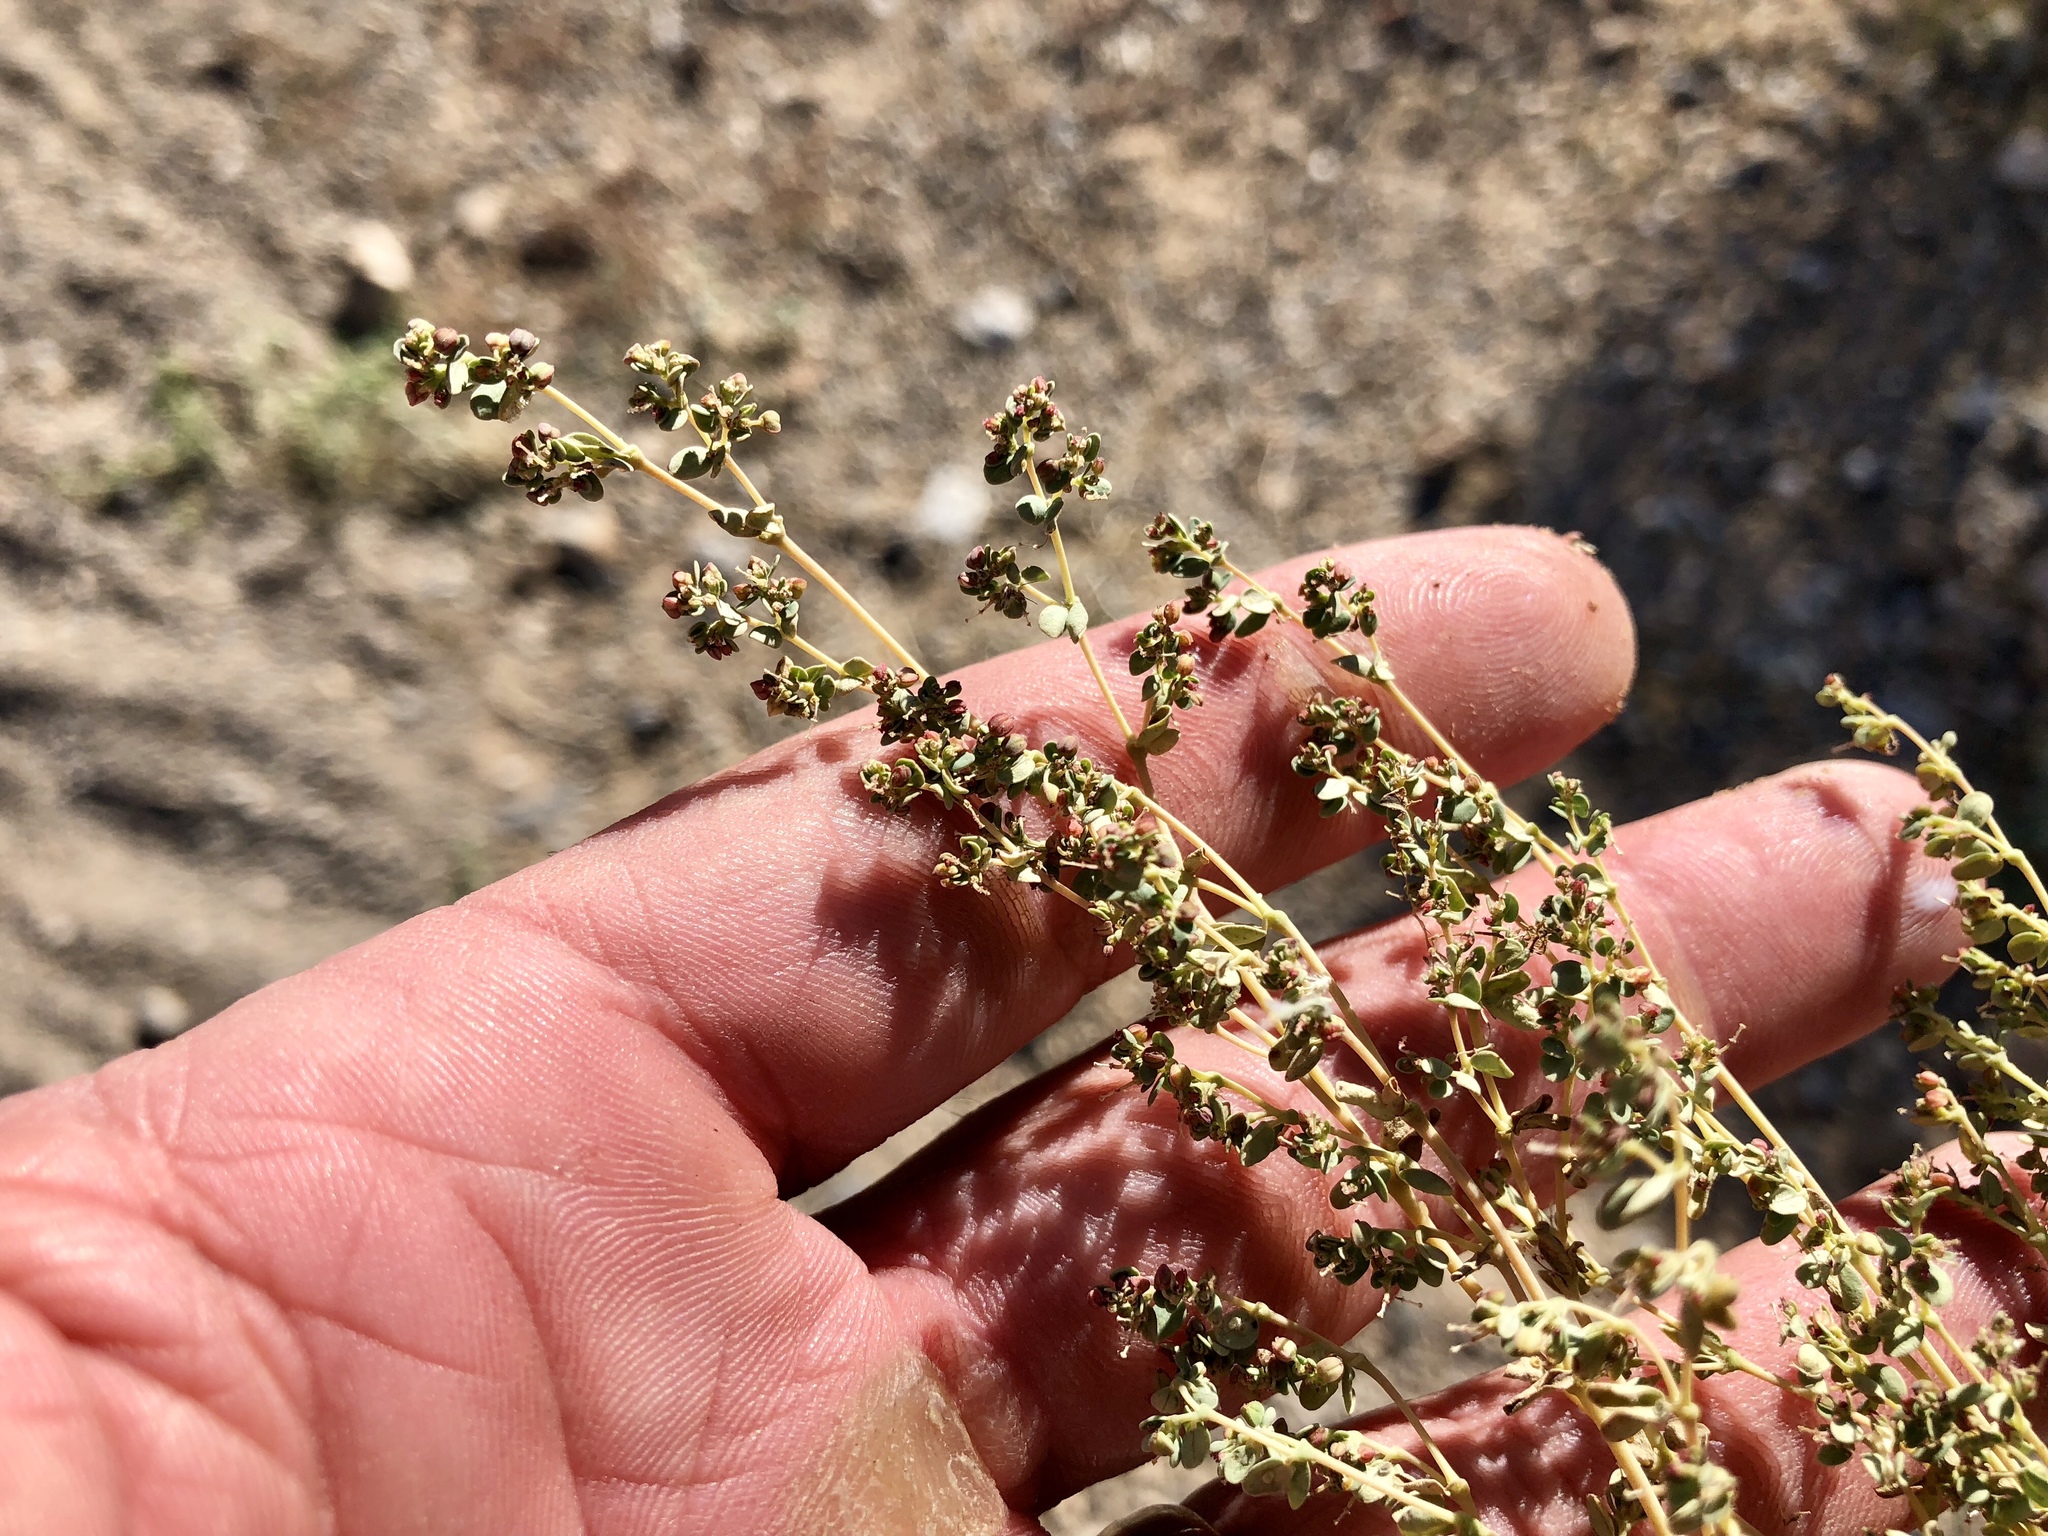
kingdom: Plantae
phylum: Tracheophyta
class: Magnoliopsida
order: Malpighiales
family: Euphorbiaceae
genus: Euphorbia
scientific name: Euphorbia polycarpa
